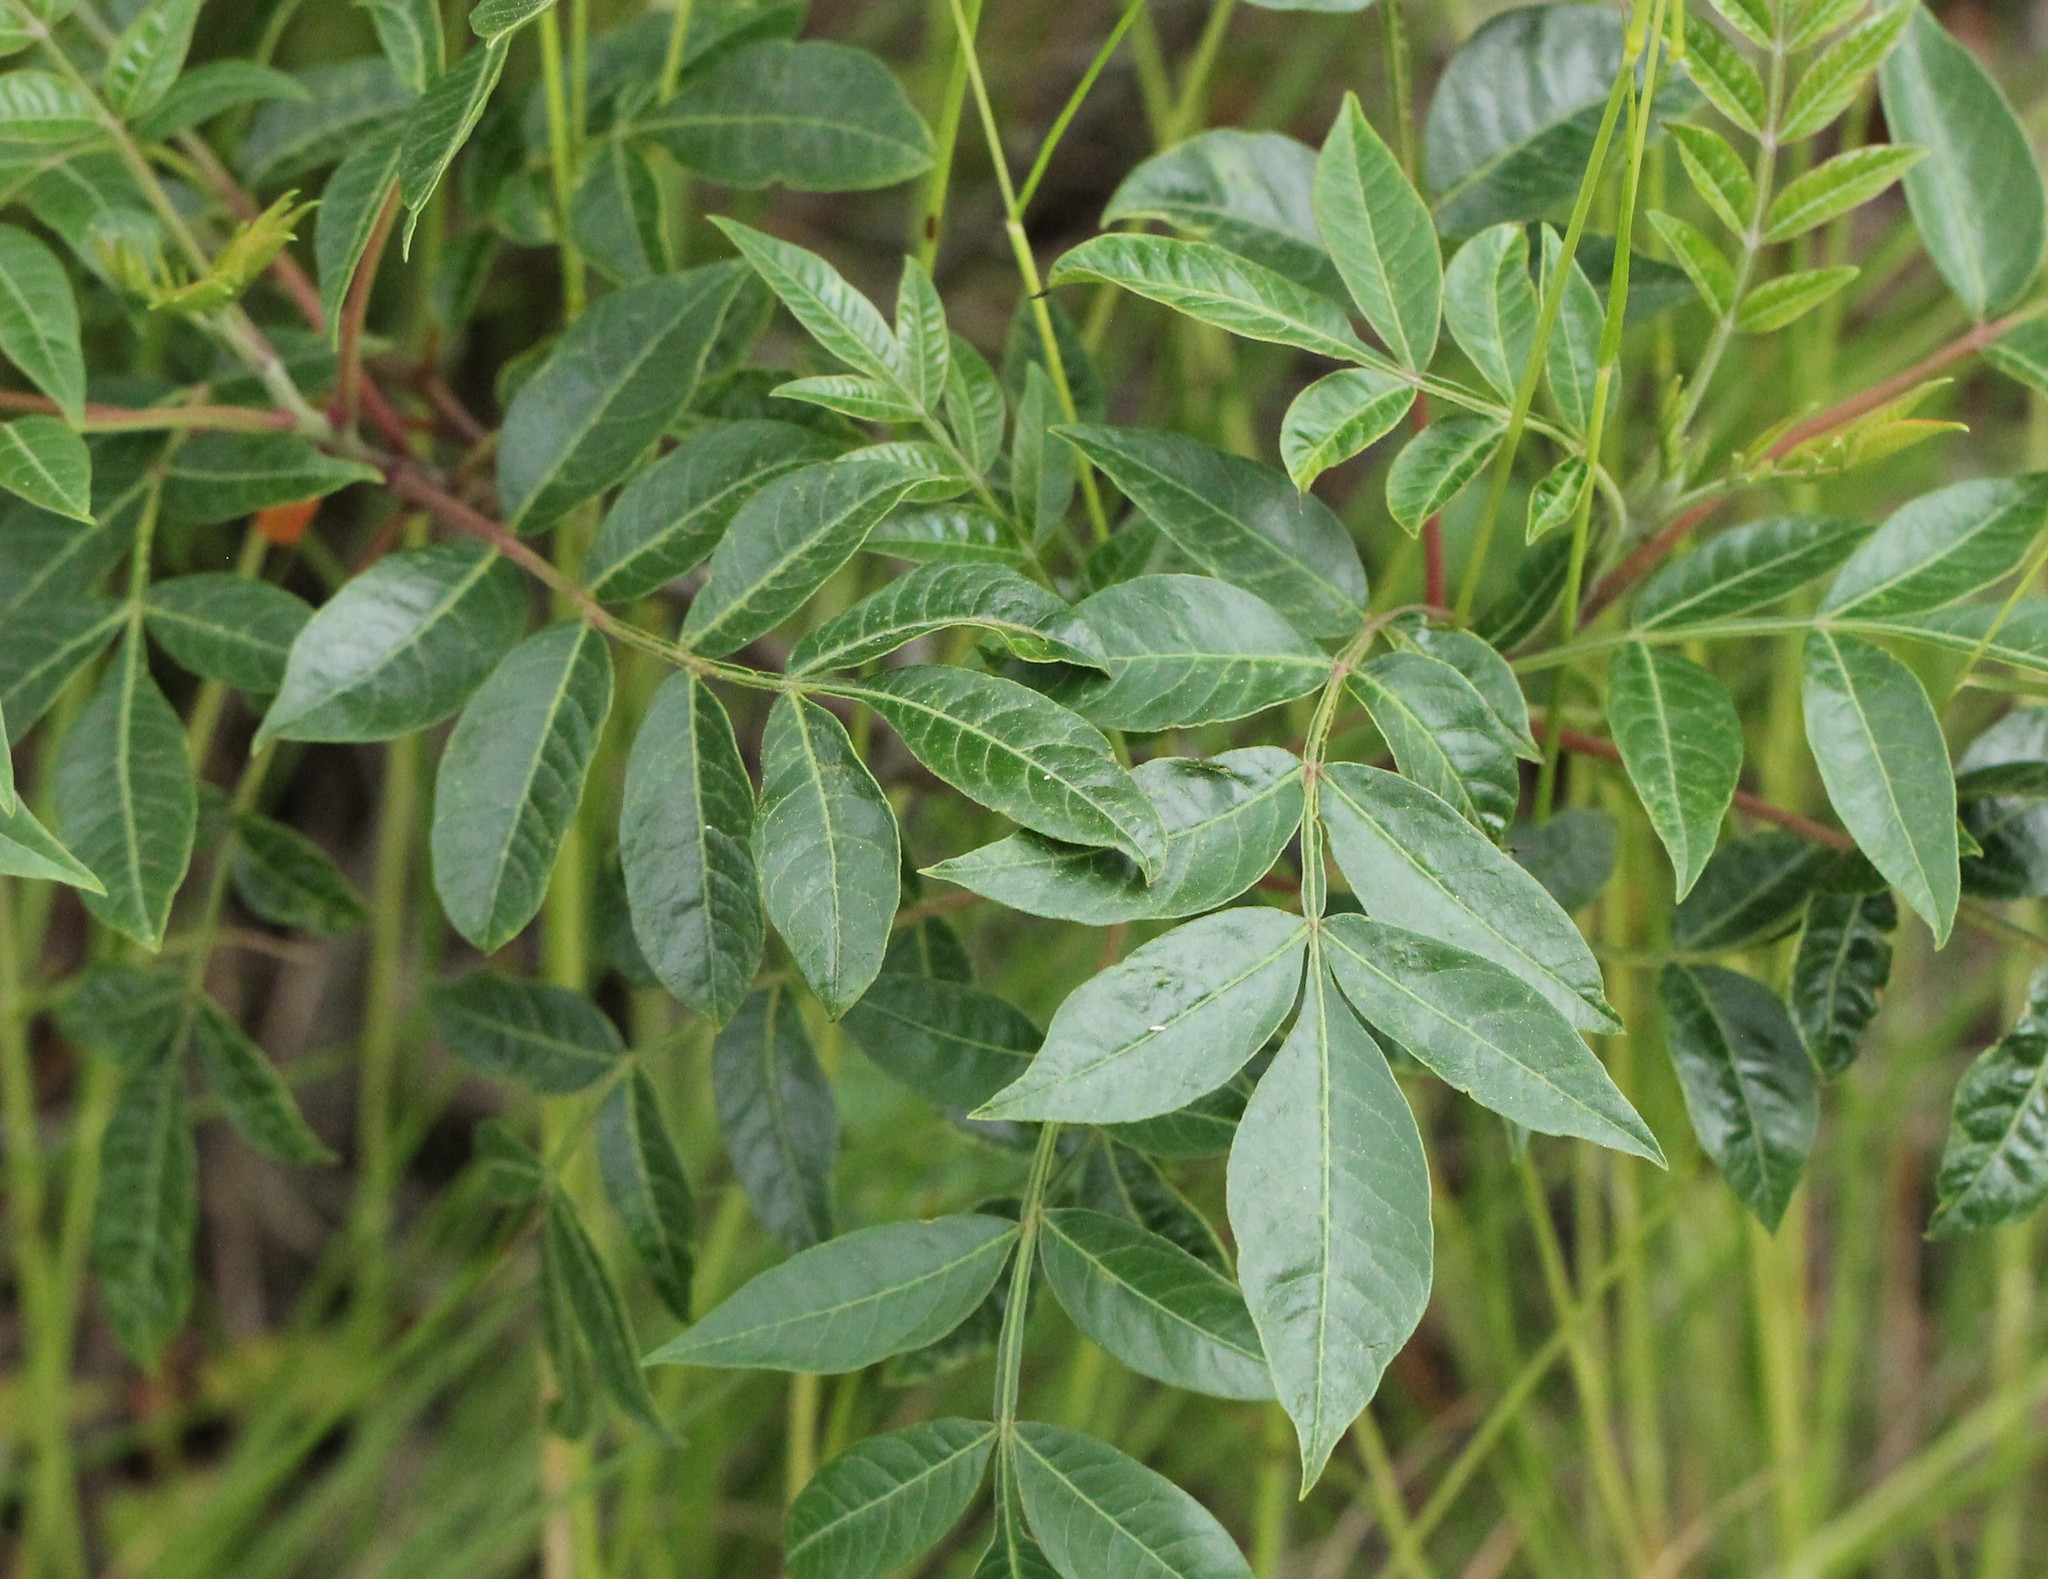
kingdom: Plantae
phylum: Tracheophyta
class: Magnoliopsida
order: Sapindales
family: Anacardiaceae
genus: Rhus
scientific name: Rhus copallina
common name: Shining sumac
